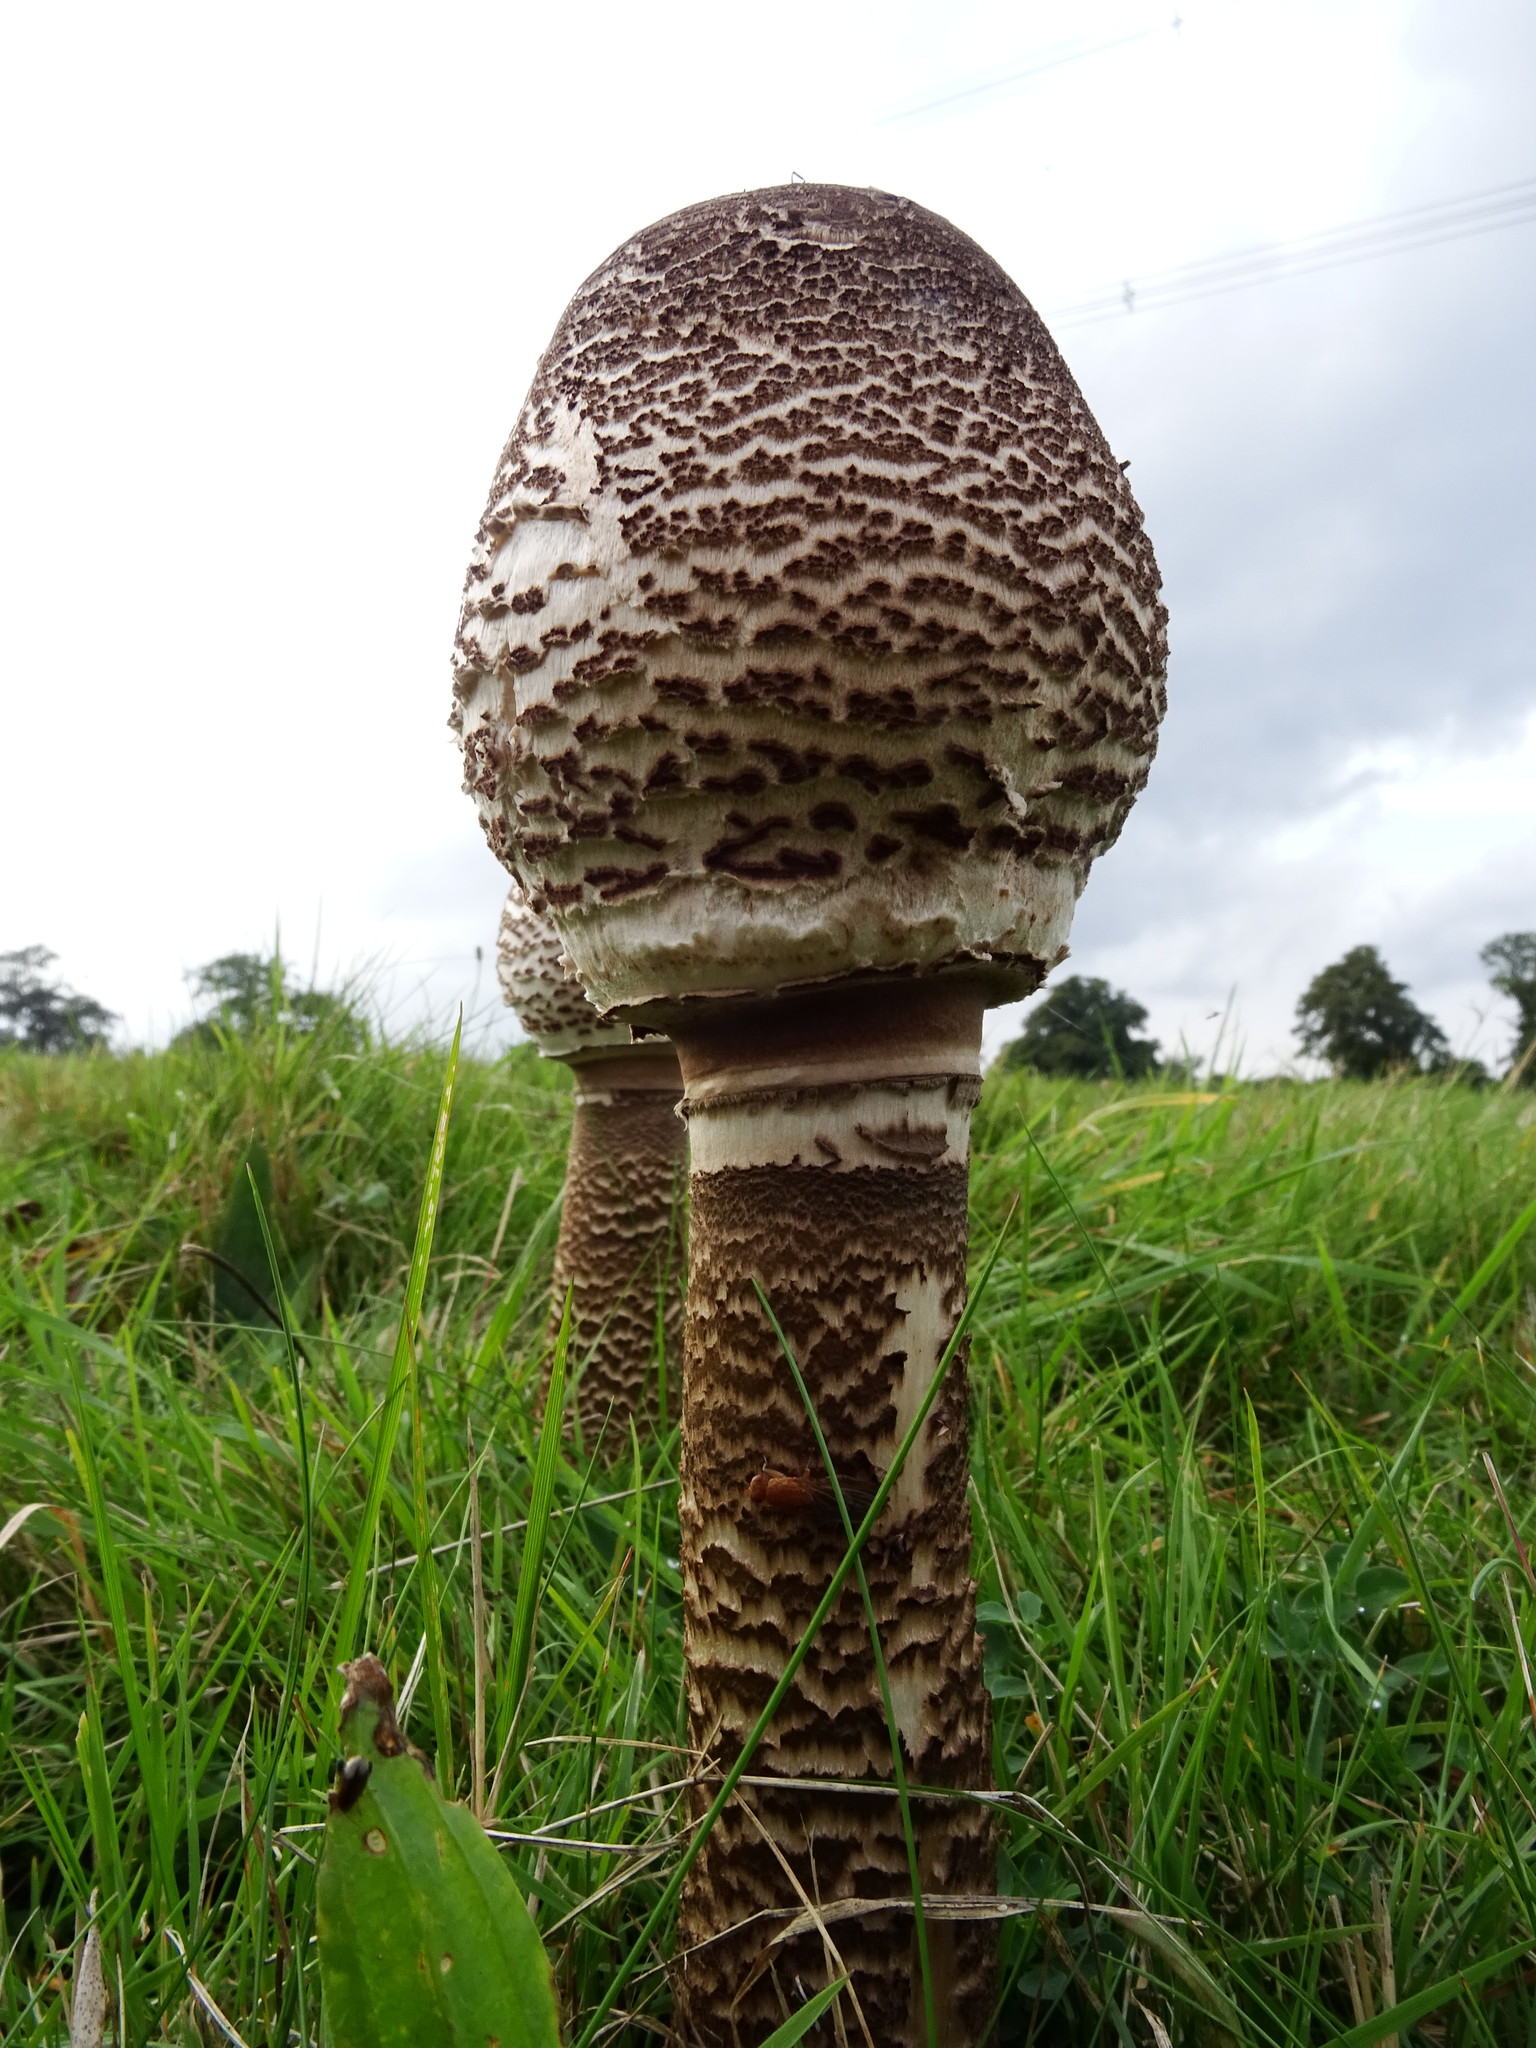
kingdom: Fungi
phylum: Basidiomycota
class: Agaricomycetes
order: Agaricales
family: Agaricaceae
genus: Macrolepiota
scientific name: Macrolepiota procera
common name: Parasol
